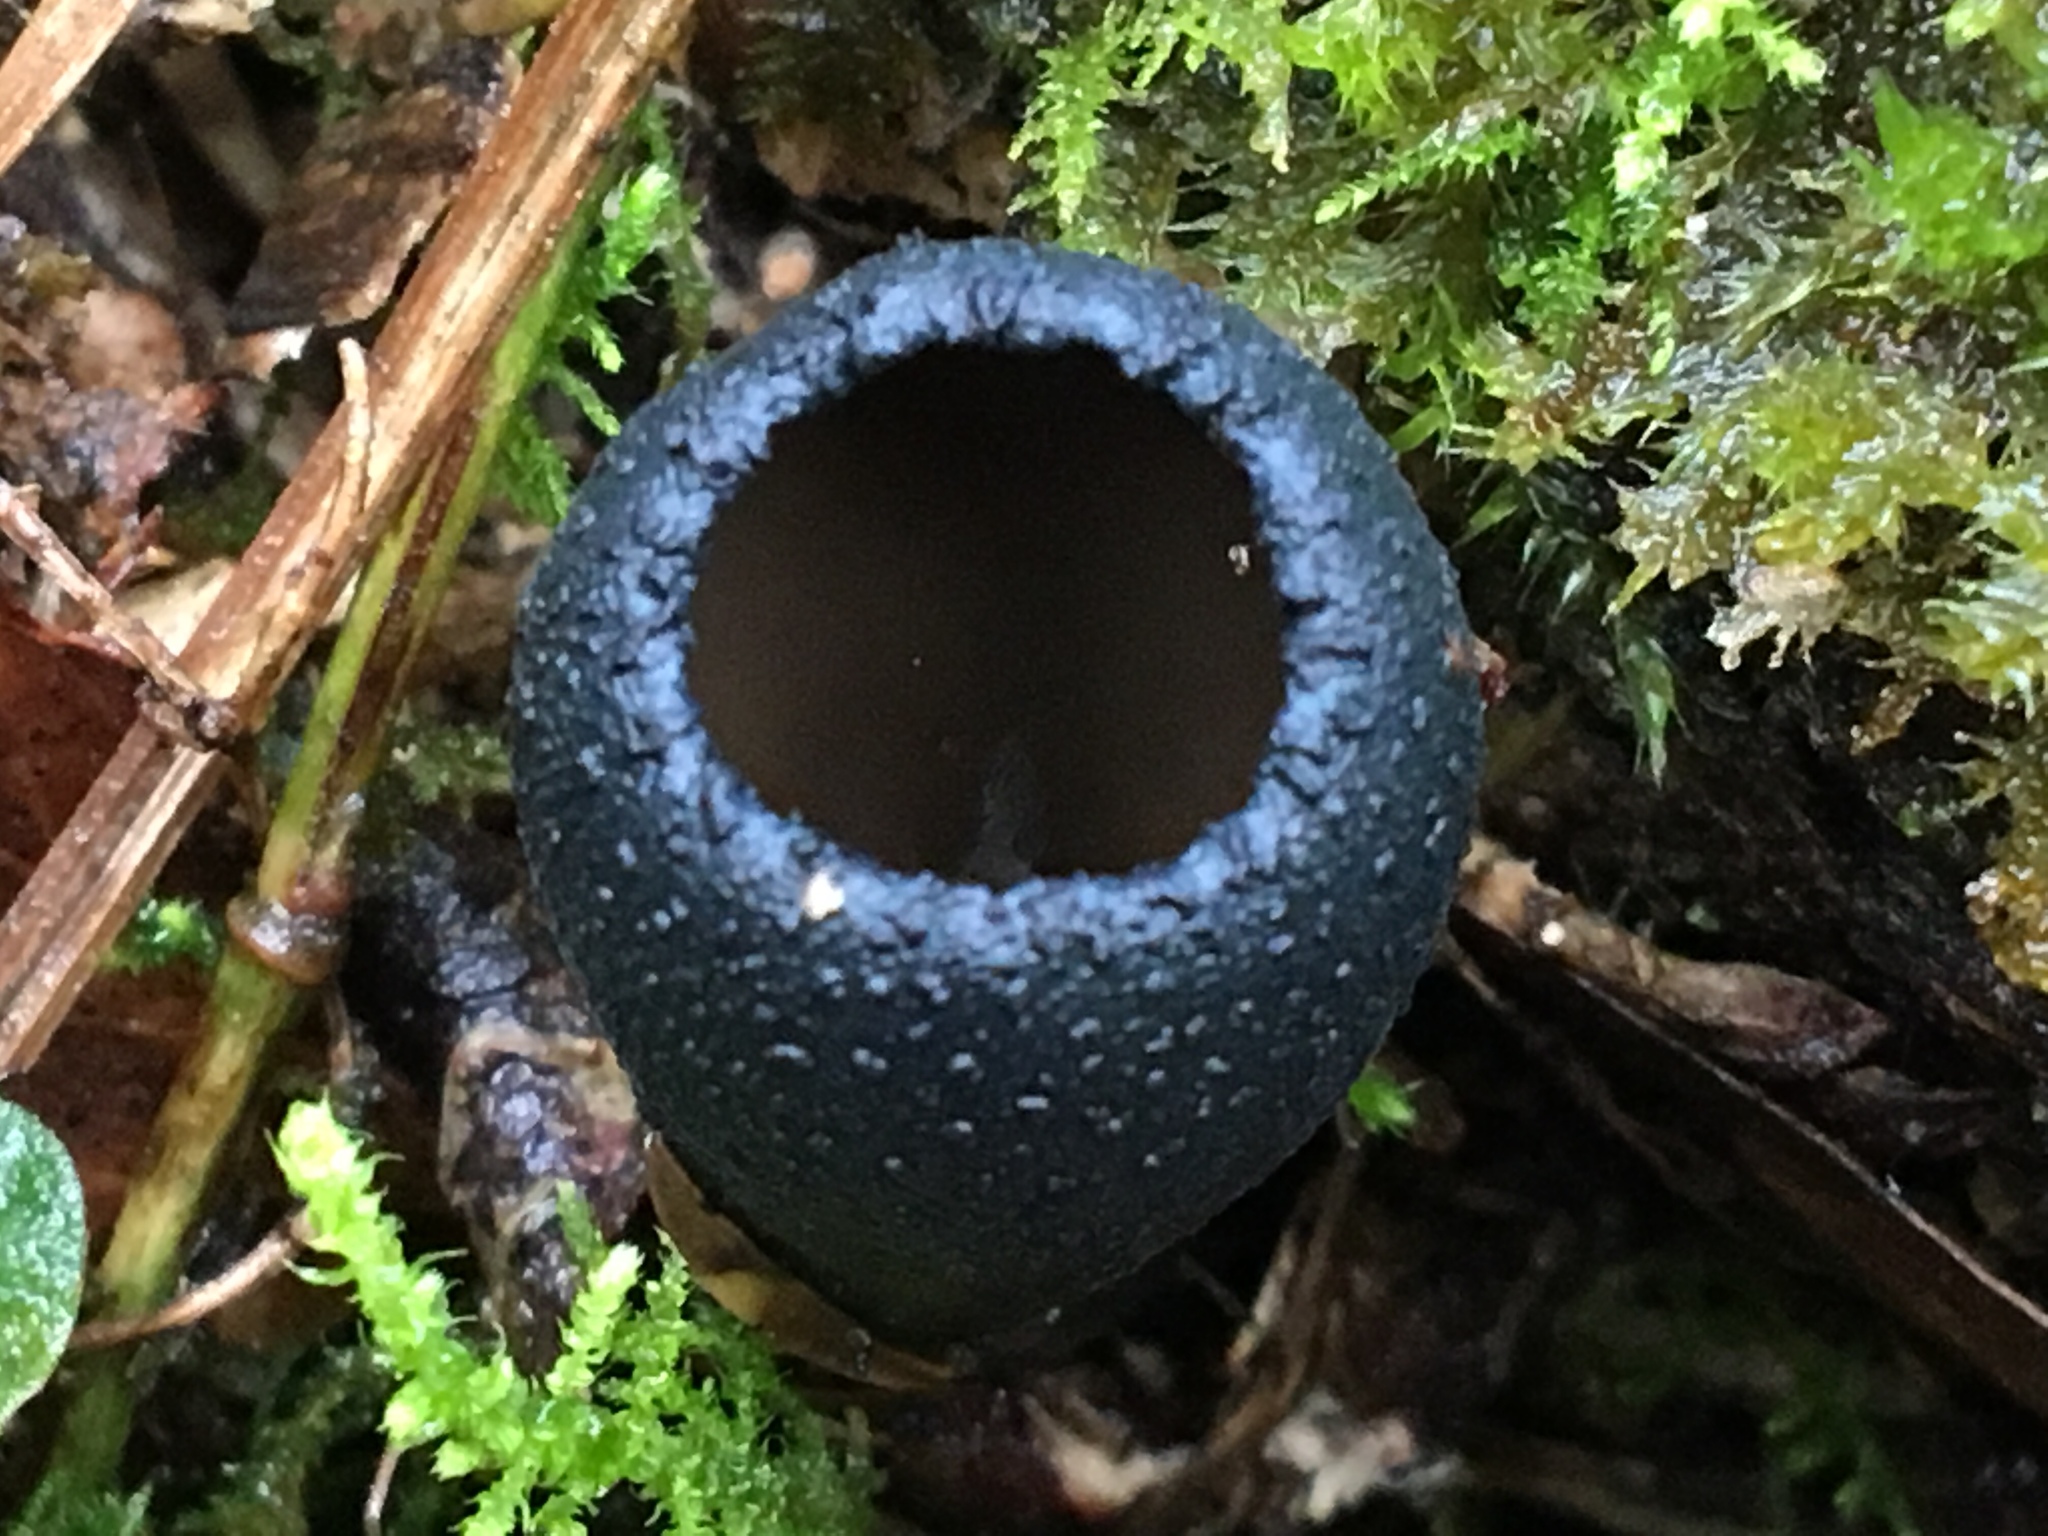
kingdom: Fungi
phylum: Ascomycota
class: Pezizomycetes
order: Pezizales
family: Sarcosomataceae
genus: Plectania
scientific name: Plectania campylospora
